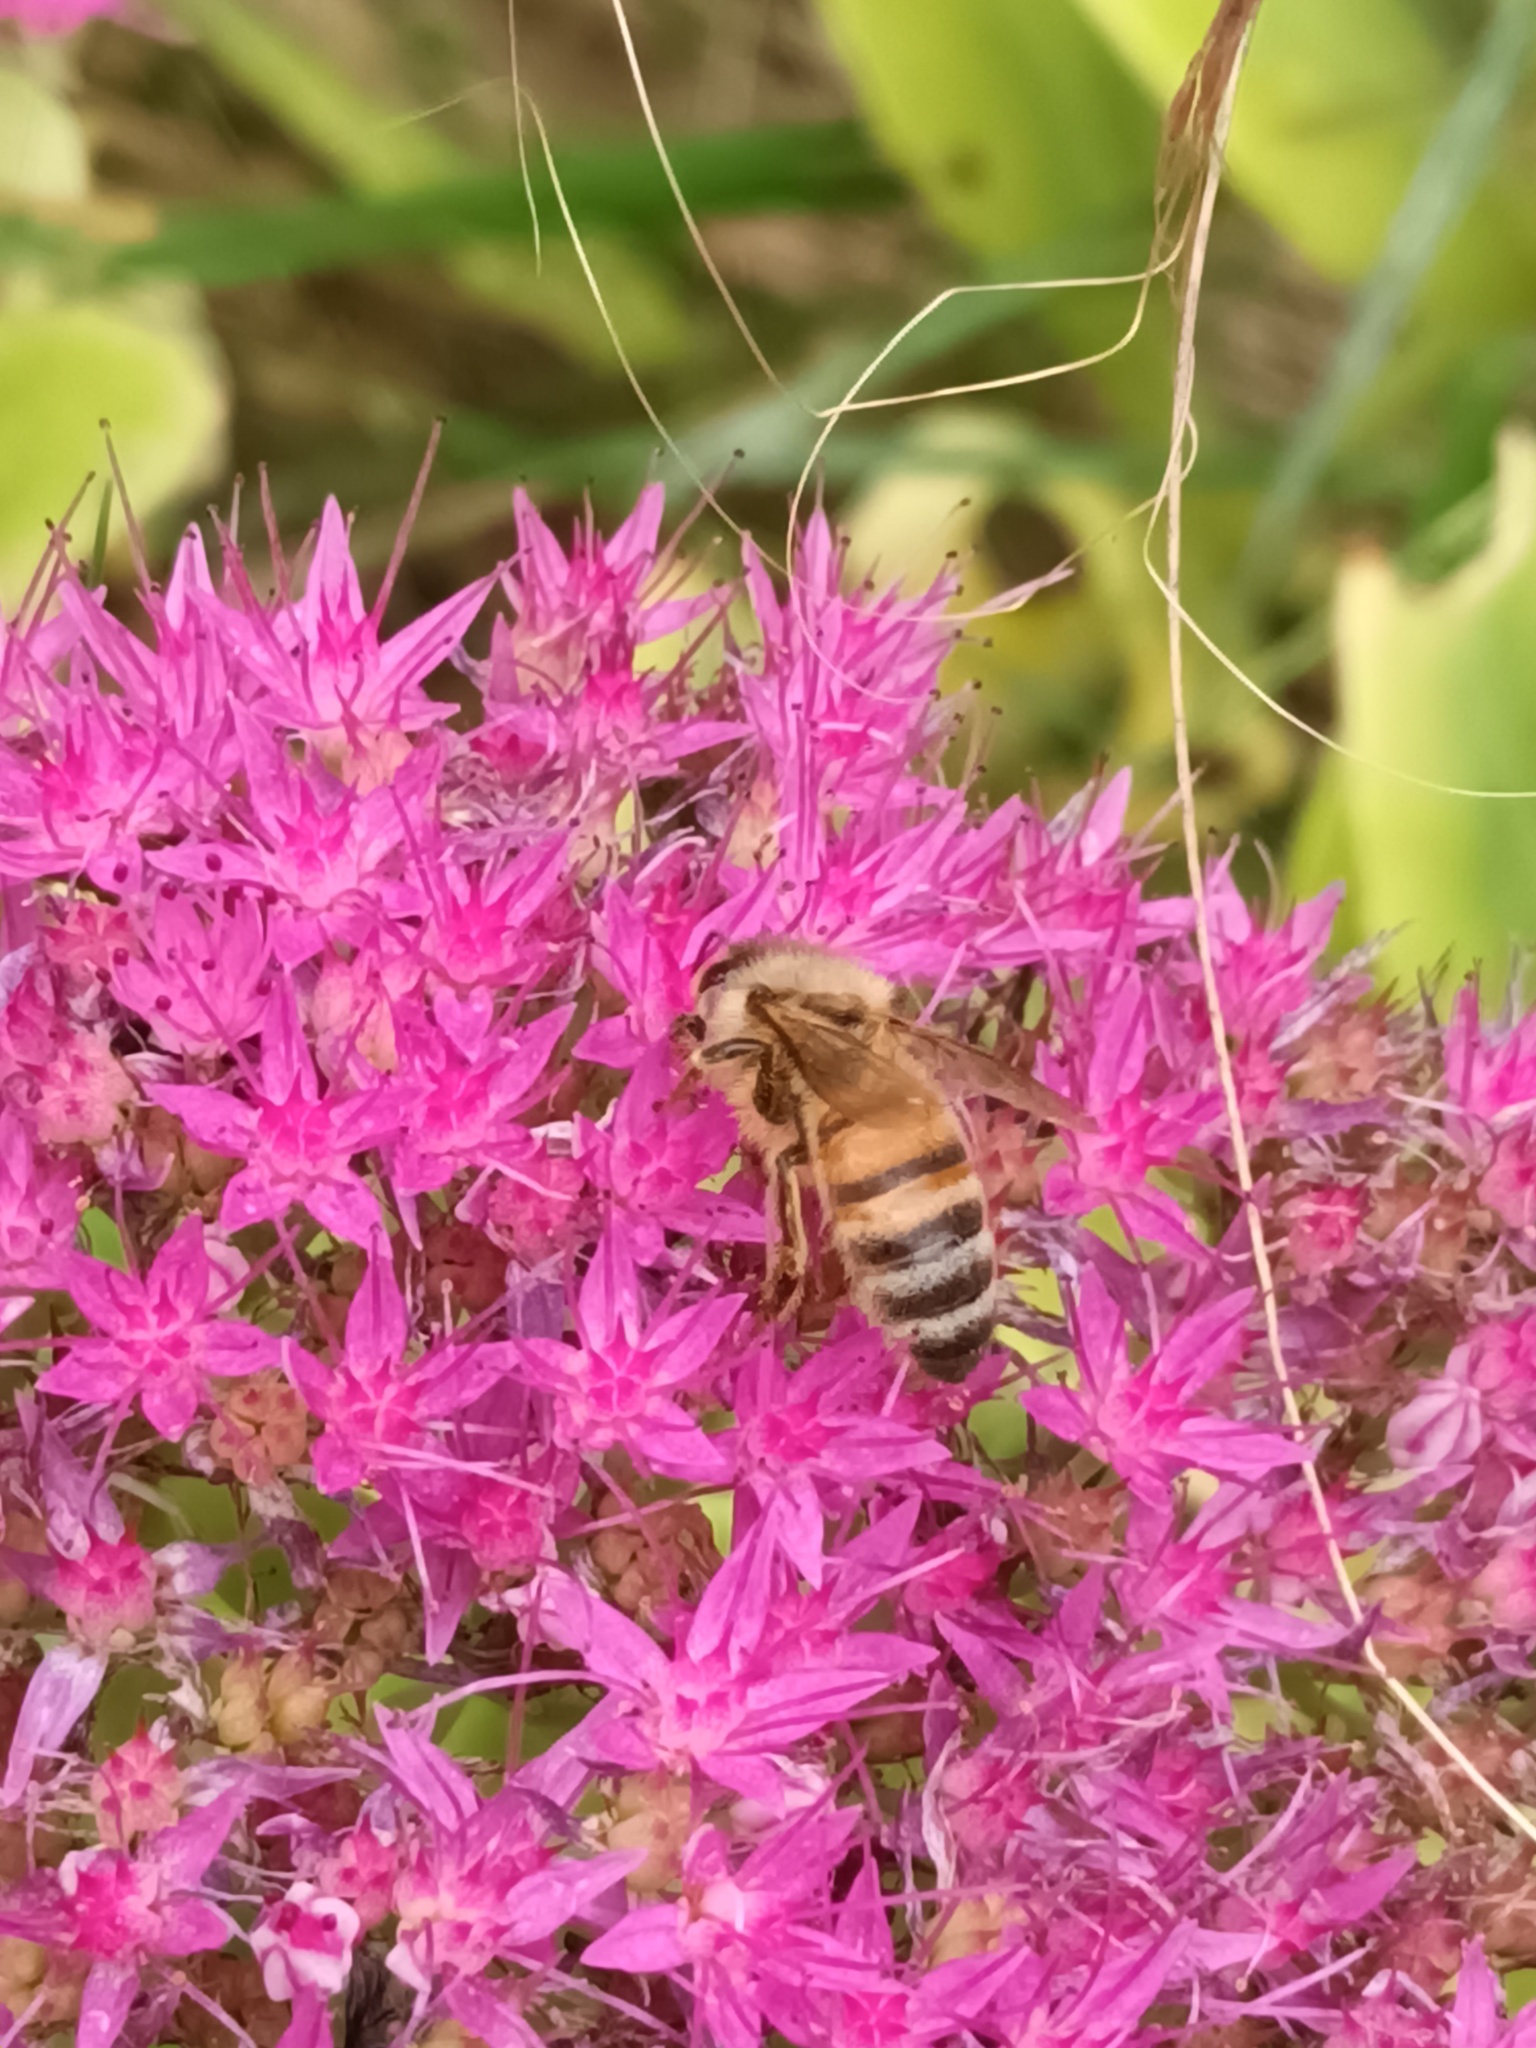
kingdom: Animalia
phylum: Arthropoda
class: Insecta
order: Hymenoptera
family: Apidae
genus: Apis
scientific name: Apis mellifera
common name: Honey bee
